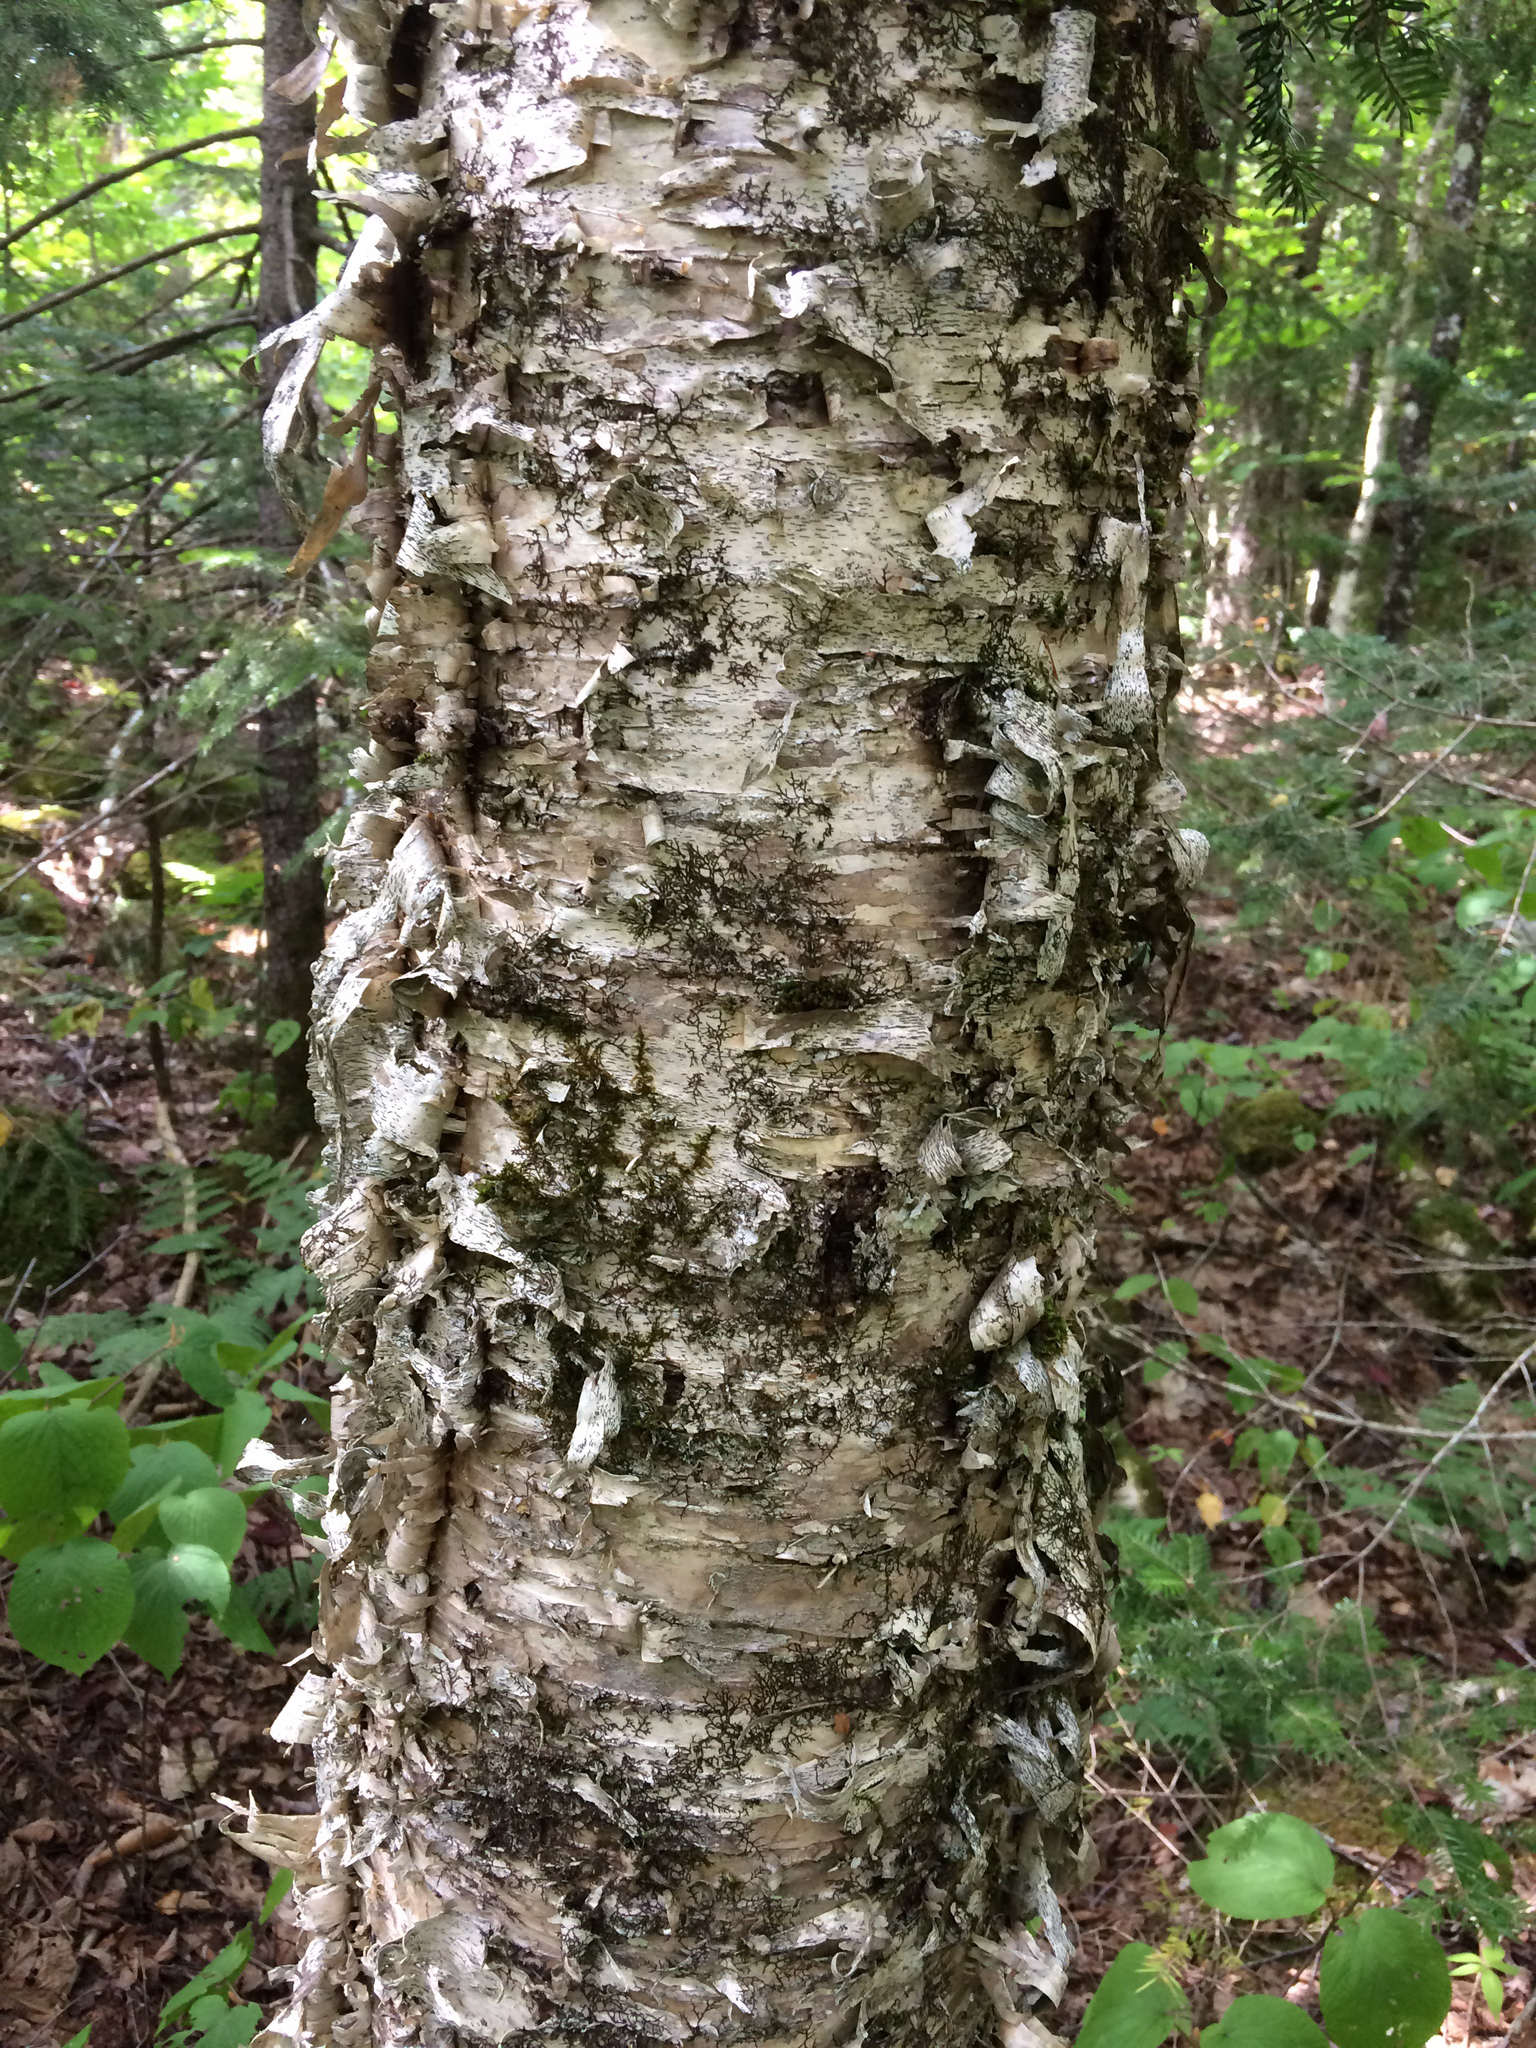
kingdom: Plantae
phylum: Tracheophyta
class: Magnoliopsida
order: Fagales
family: Betulaceae
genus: Betula
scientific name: Betula alleghaniensis
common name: Yellow birch
